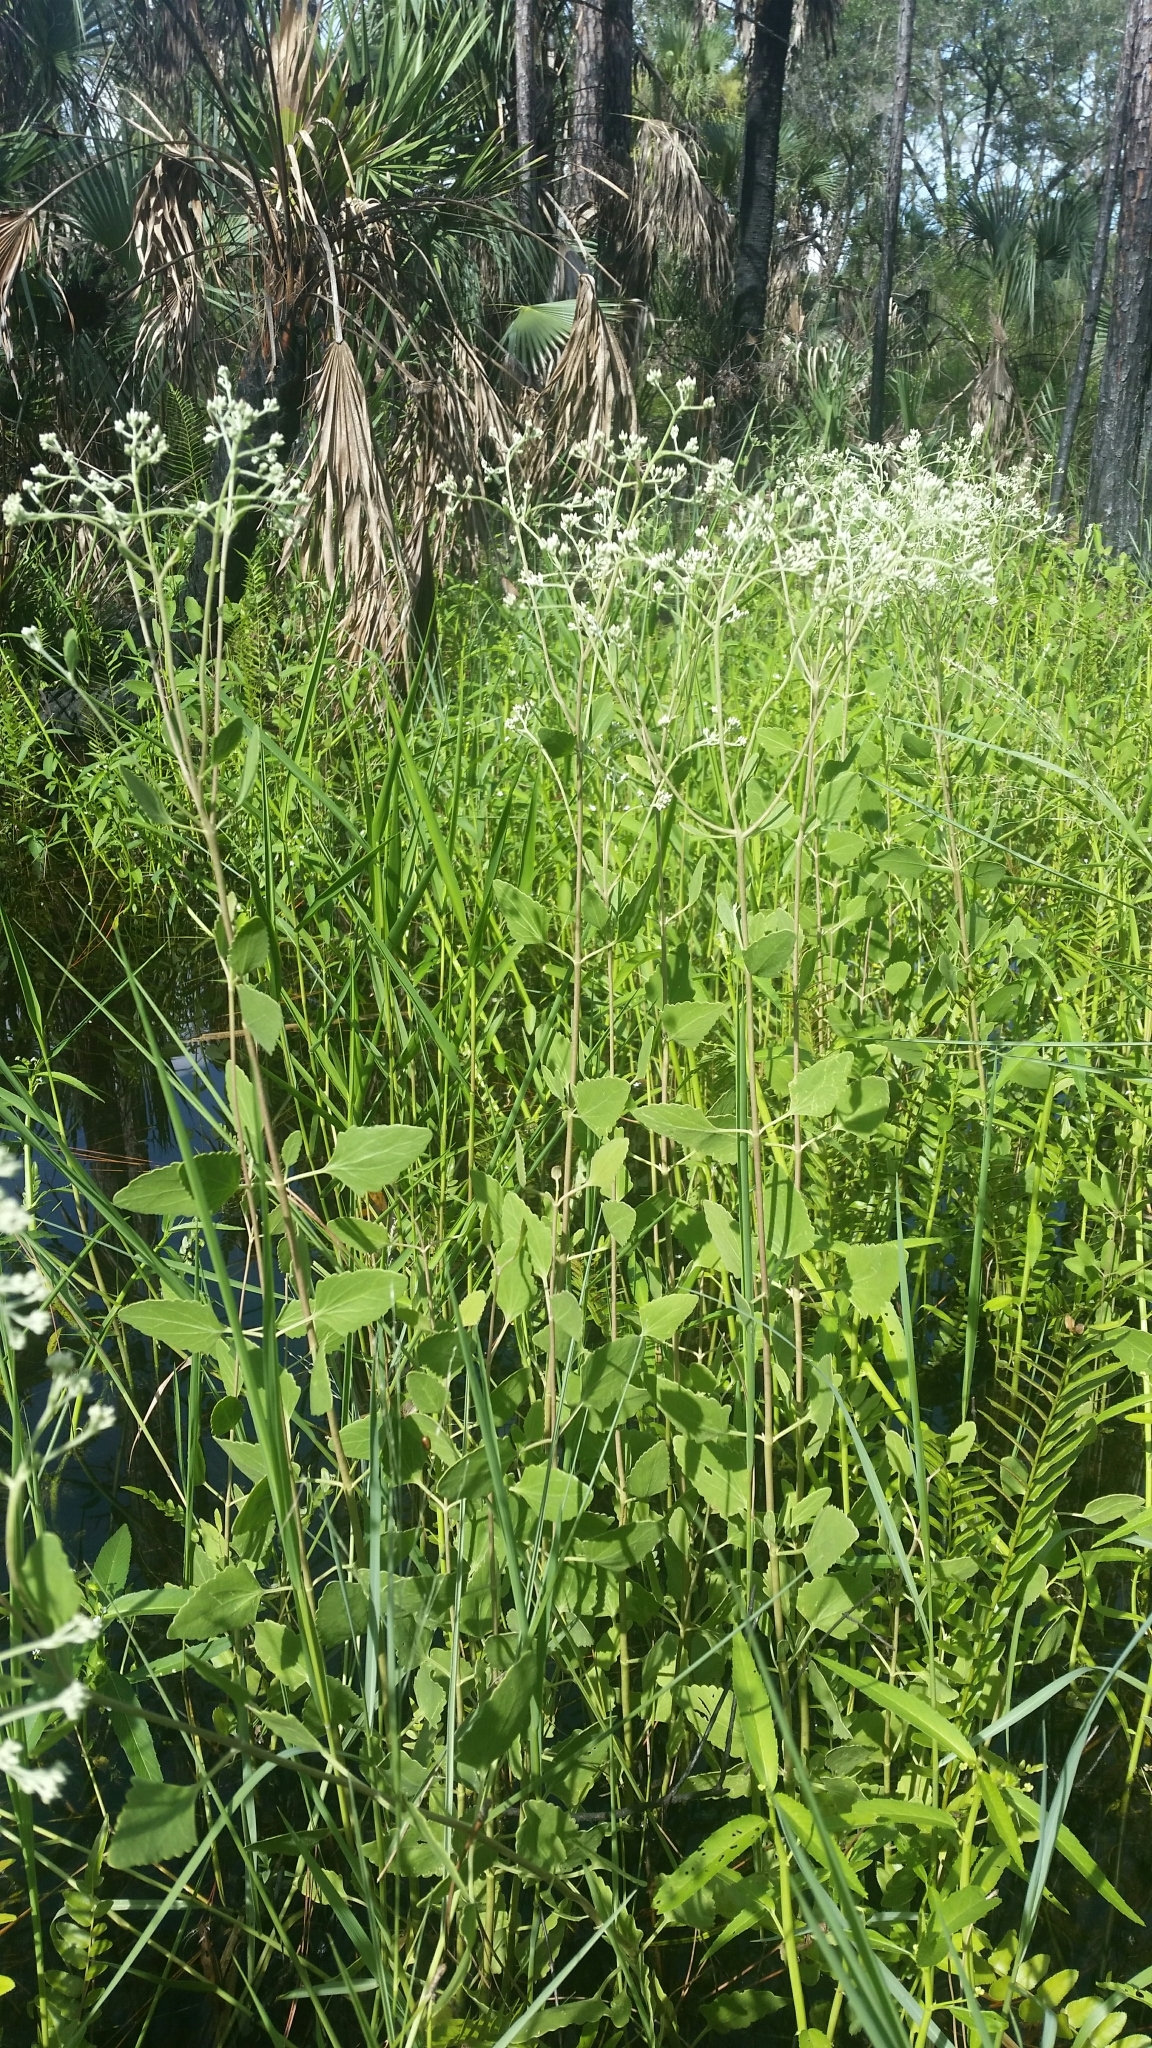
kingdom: Plantae
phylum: Tracheophyta
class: Magnoliopsida
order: Asterales
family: Asteraceae
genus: Eupatorium
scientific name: Eupatorium mikanioides
